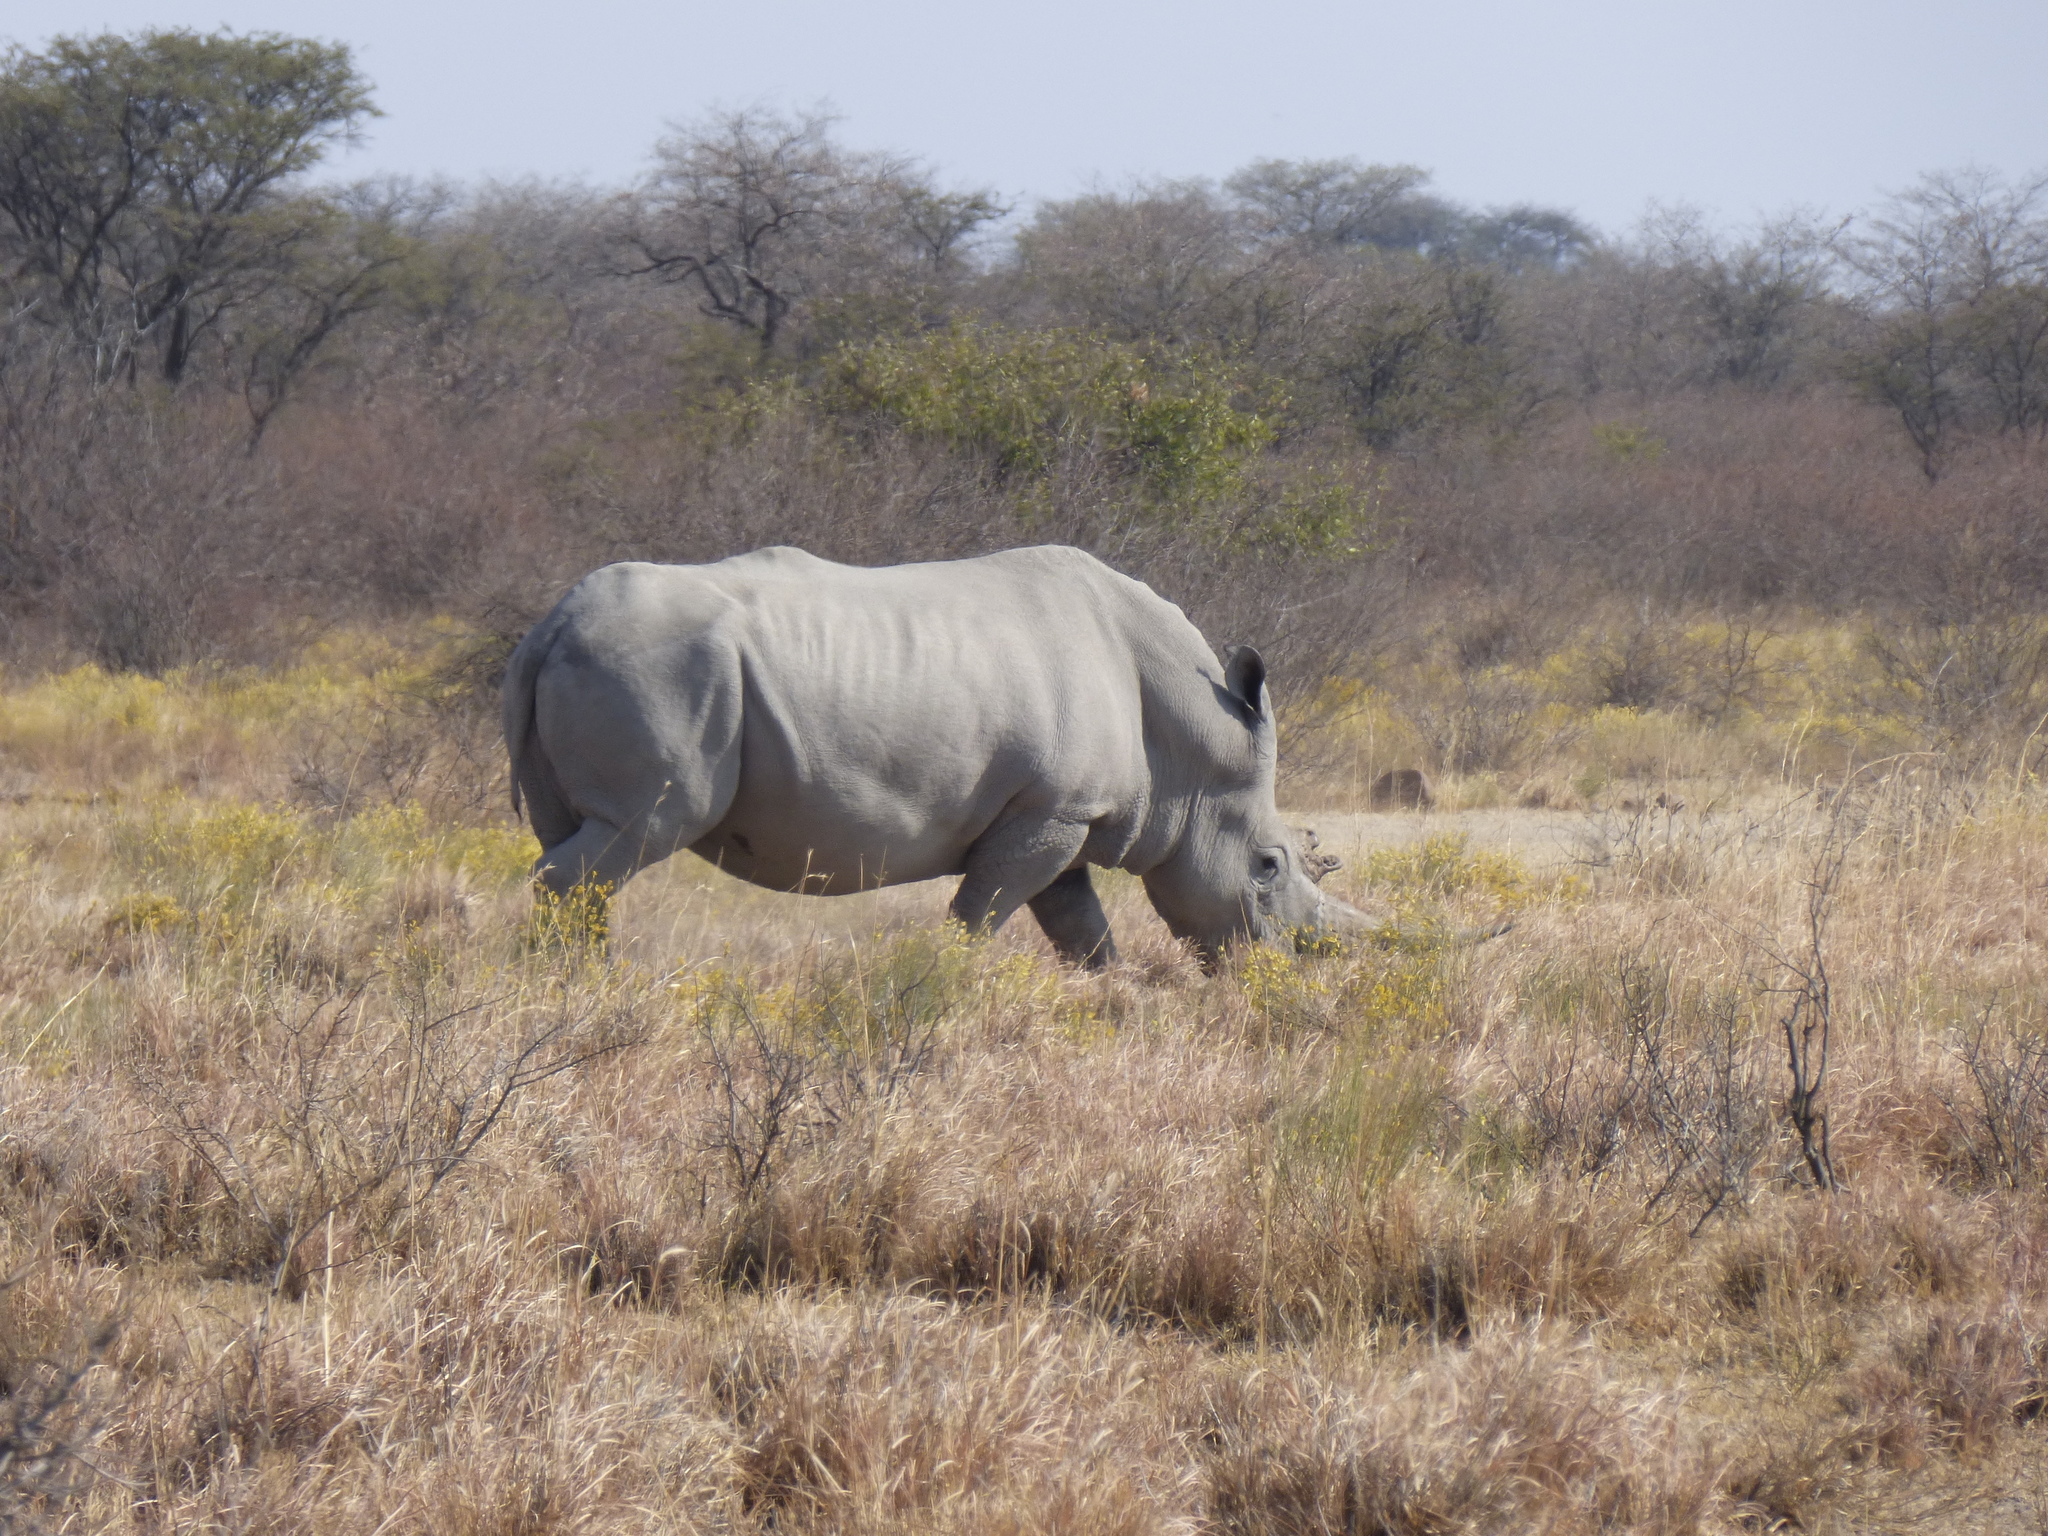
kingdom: Animalia
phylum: Chordata
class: Mammalia
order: Perissodactyla
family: Rhinocerotidae
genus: Ceratotherium
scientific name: Ceratotherium simum
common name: White rhinoceros
